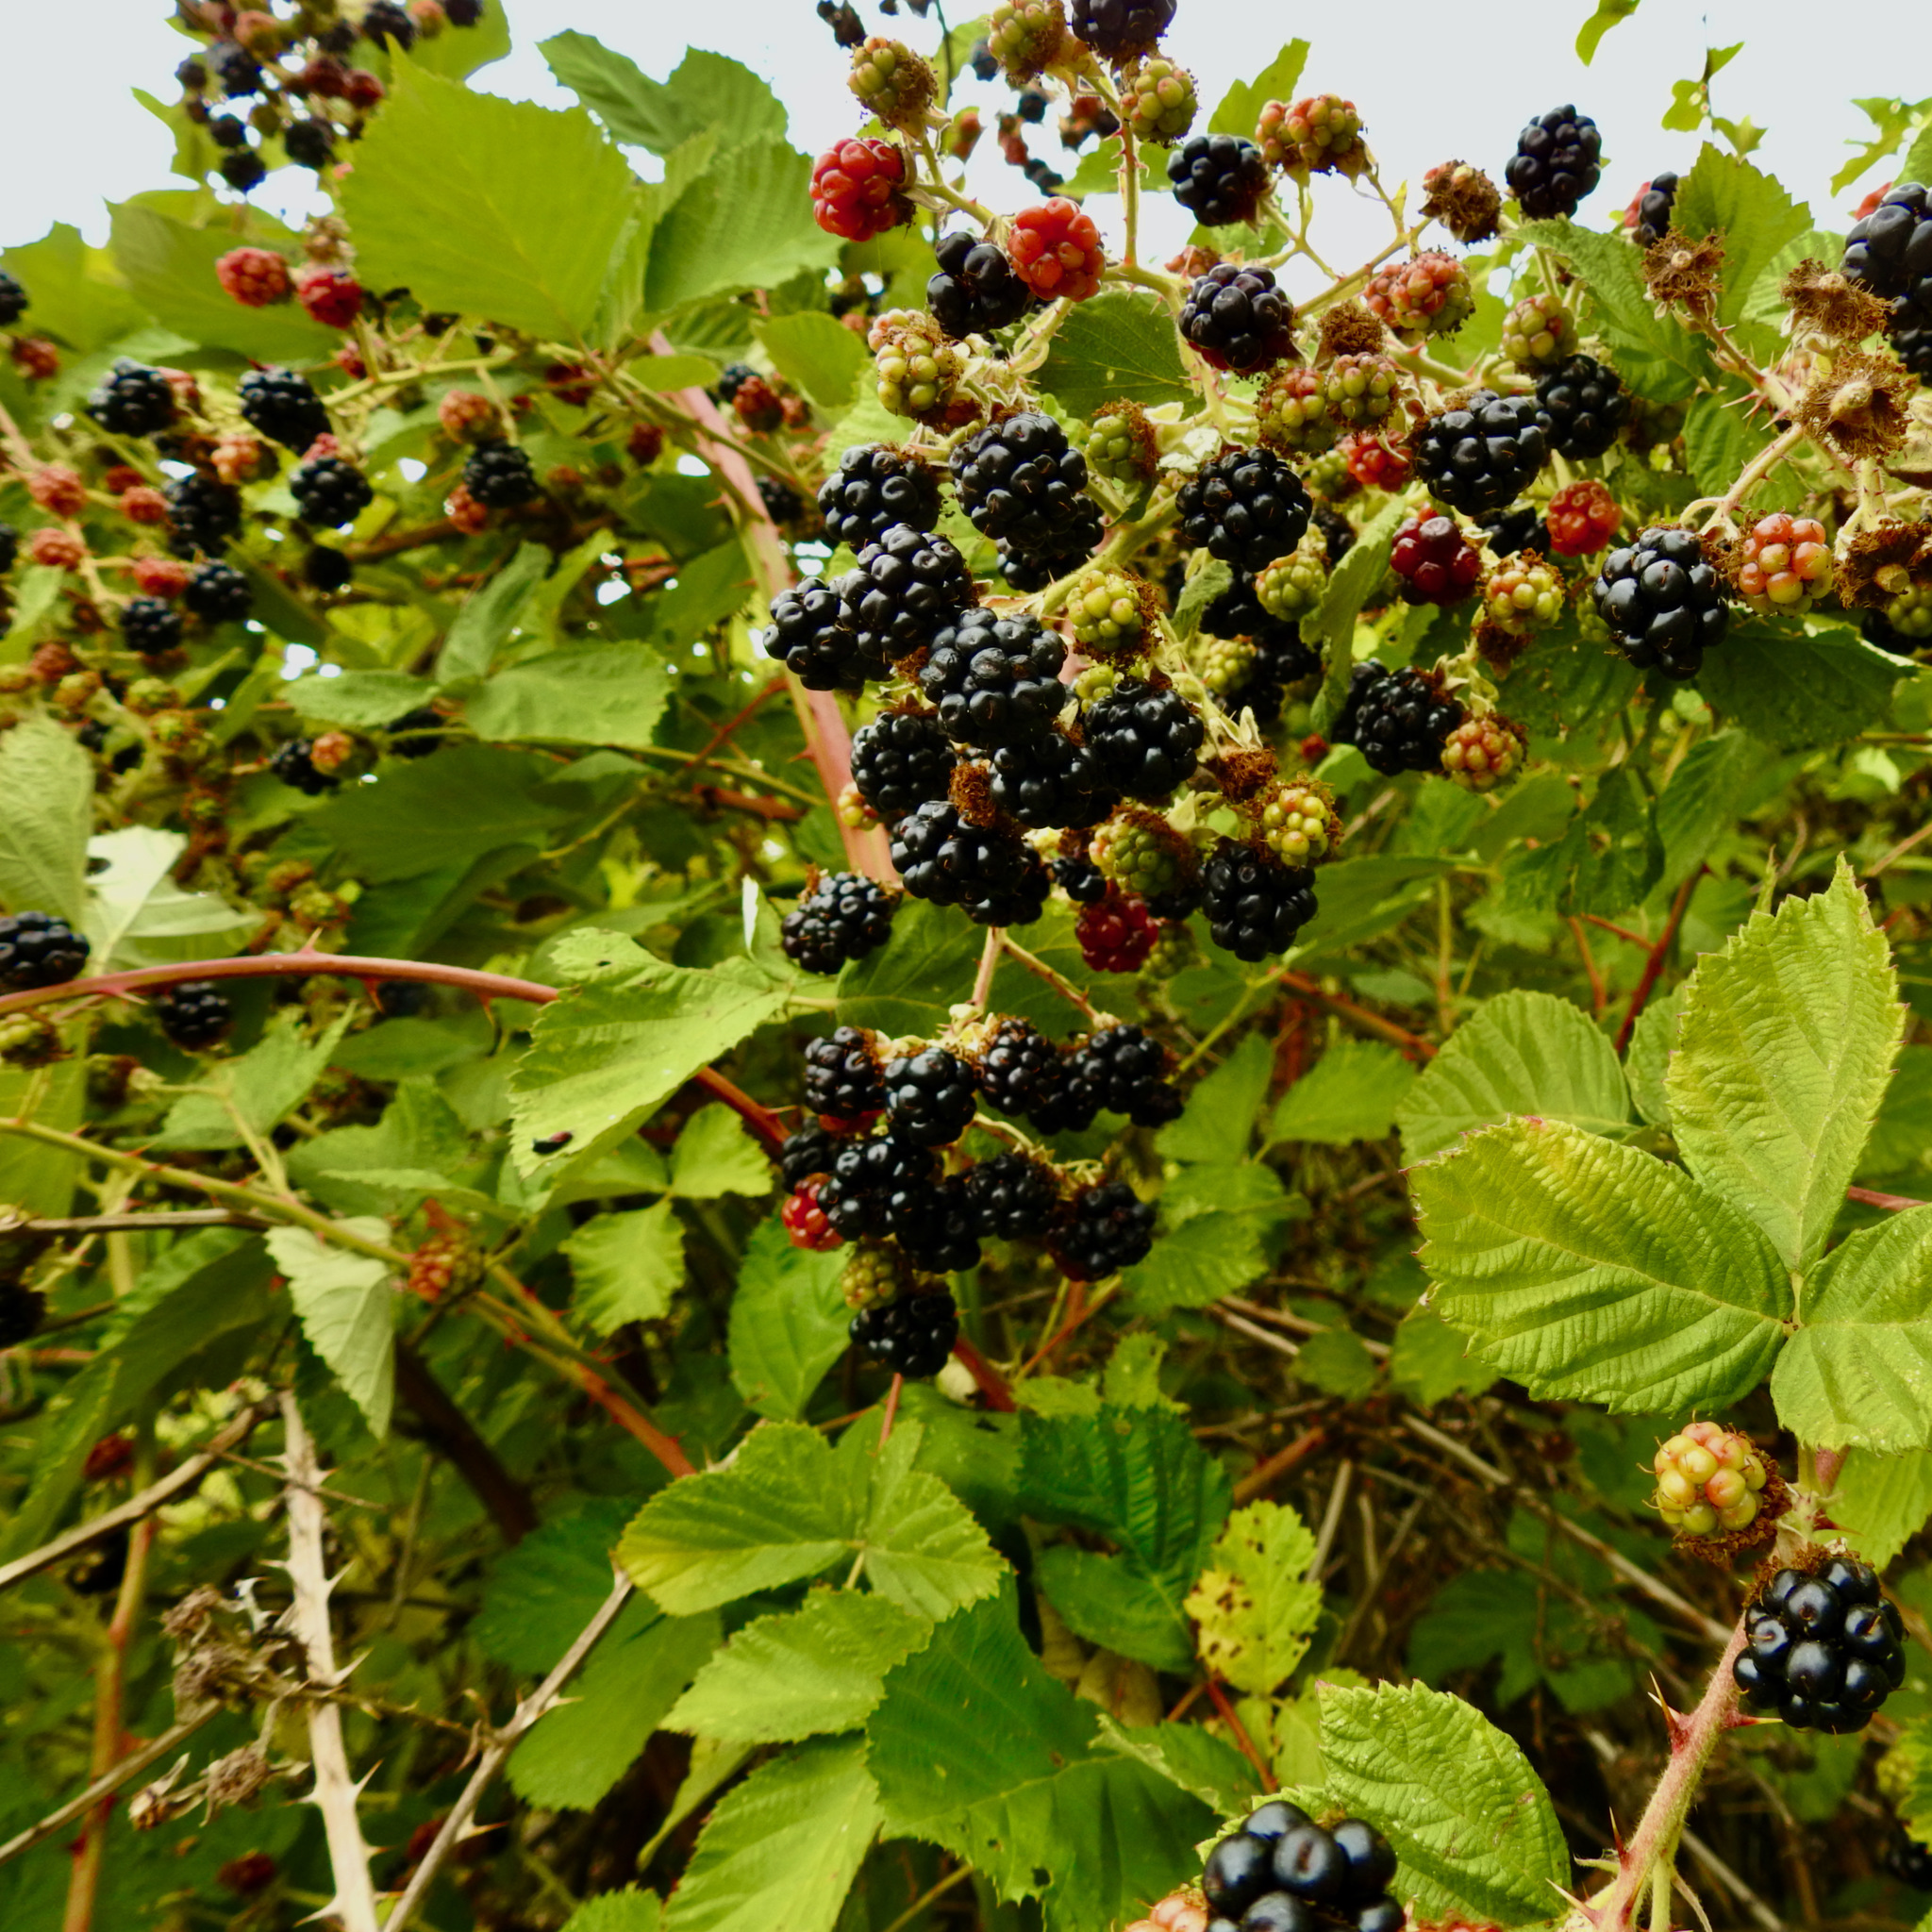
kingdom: Plantae
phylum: Tracheophyta
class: Magnoliopsida
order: Rosales
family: Rosaceae
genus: Rubus
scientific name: Rubus armeniacus
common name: Himalayan blackberry
